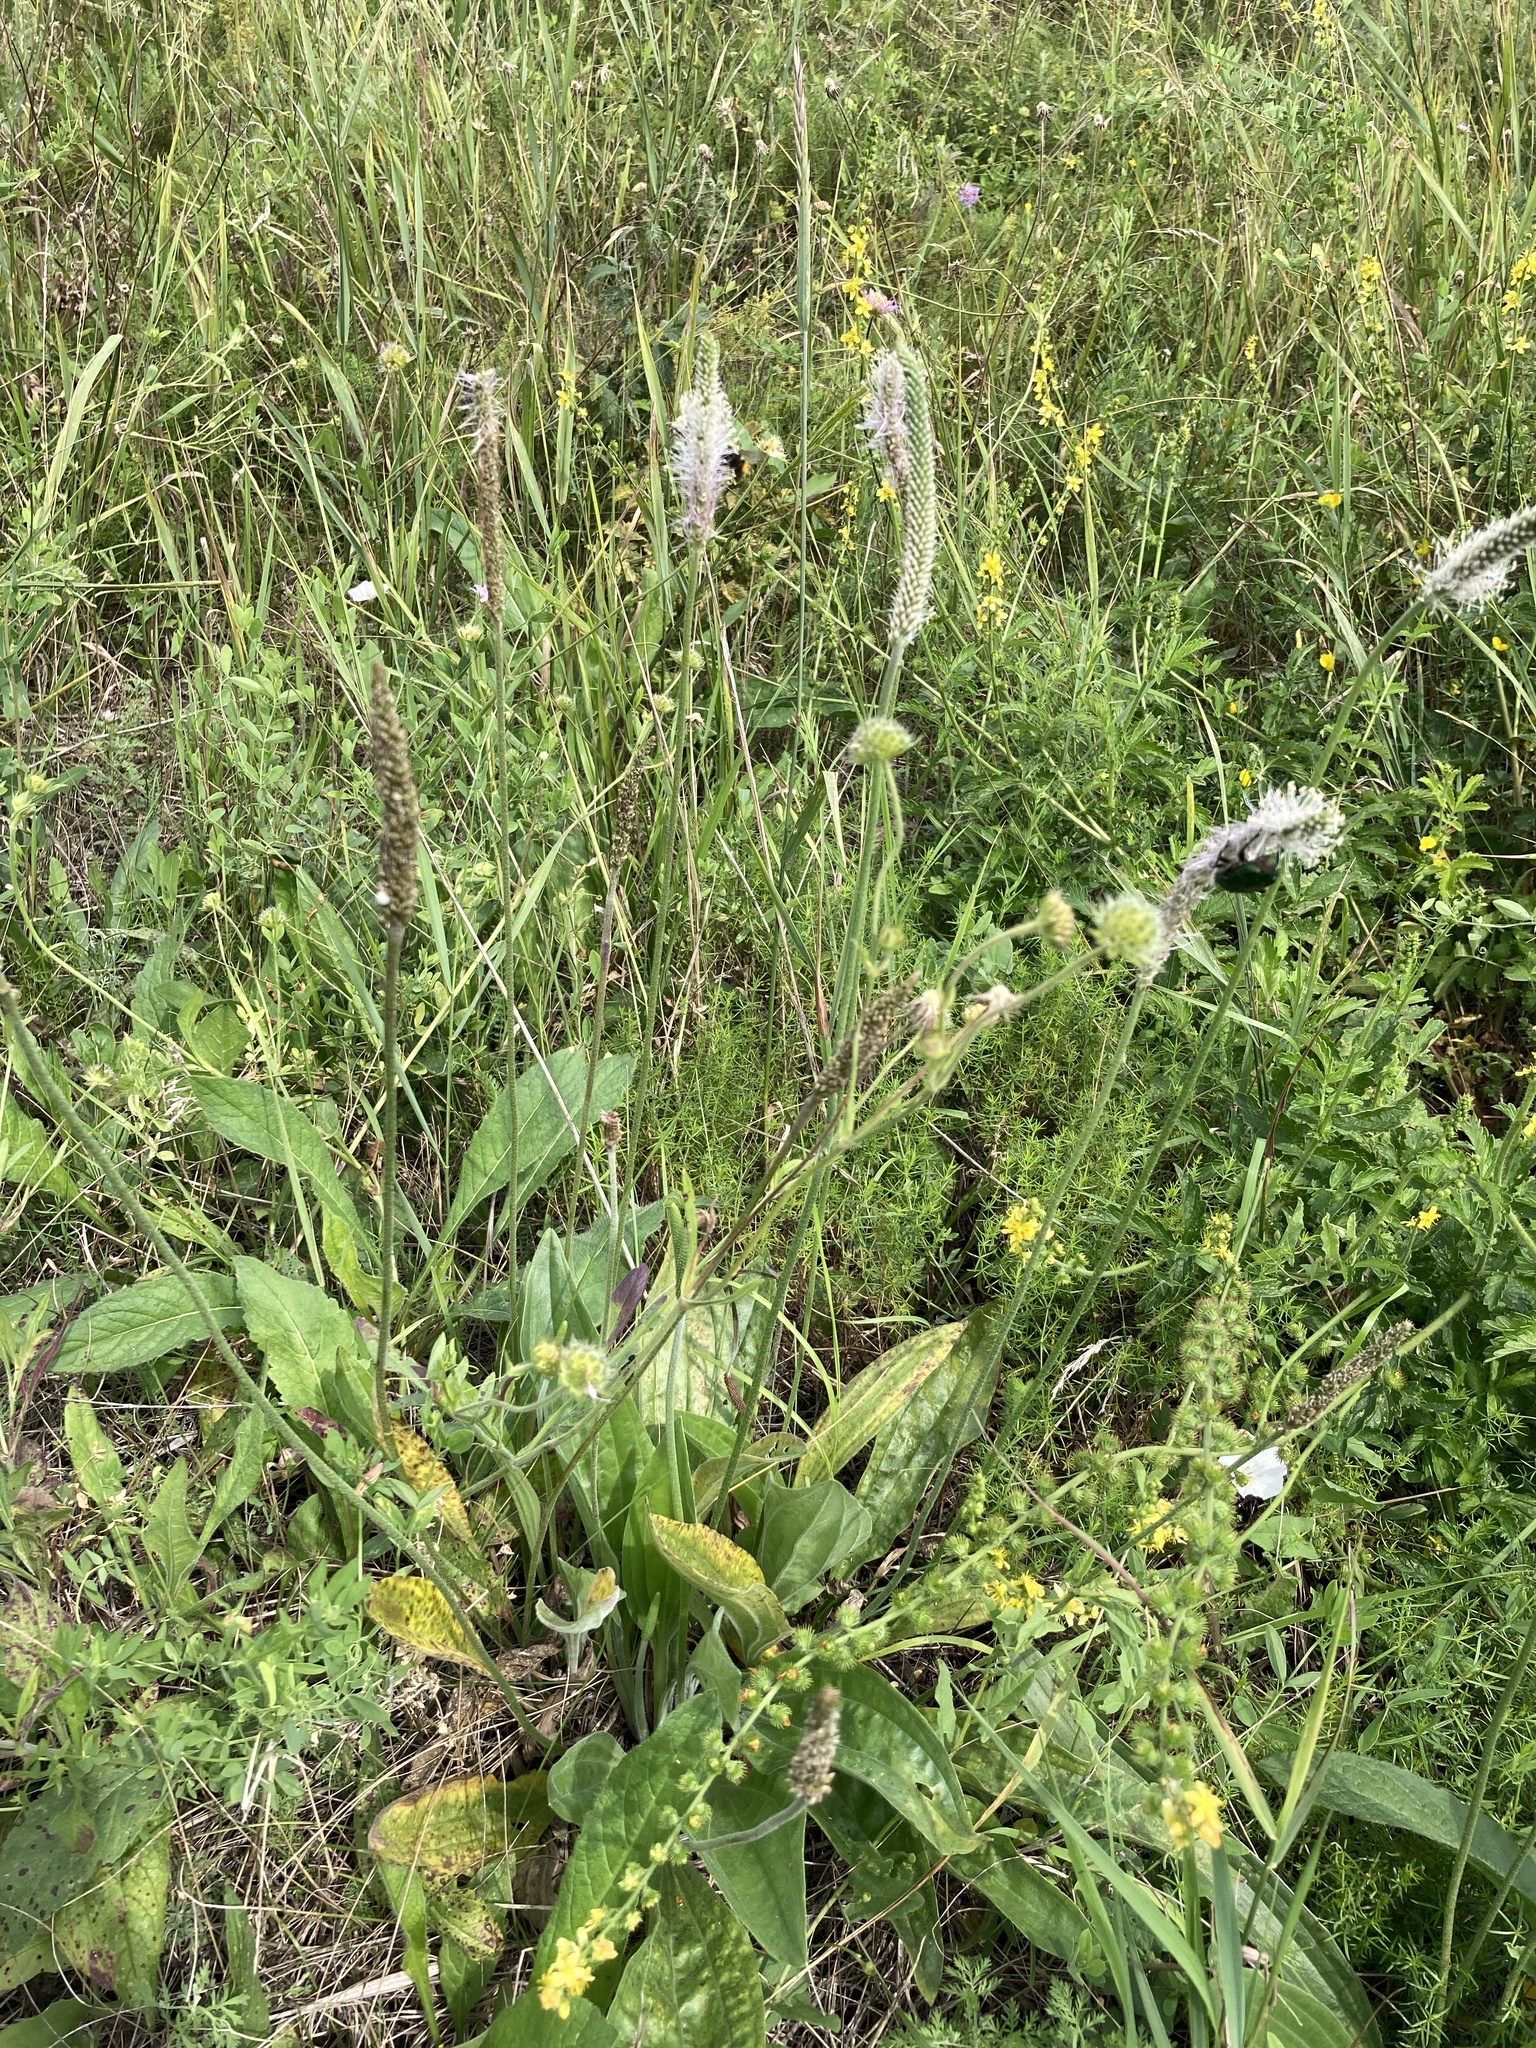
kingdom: Plantae
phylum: Tracheophyta
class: Magnoliopsida
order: Lamiales
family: Plantaginaceae
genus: Plantago
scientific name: Plantago urvillei
